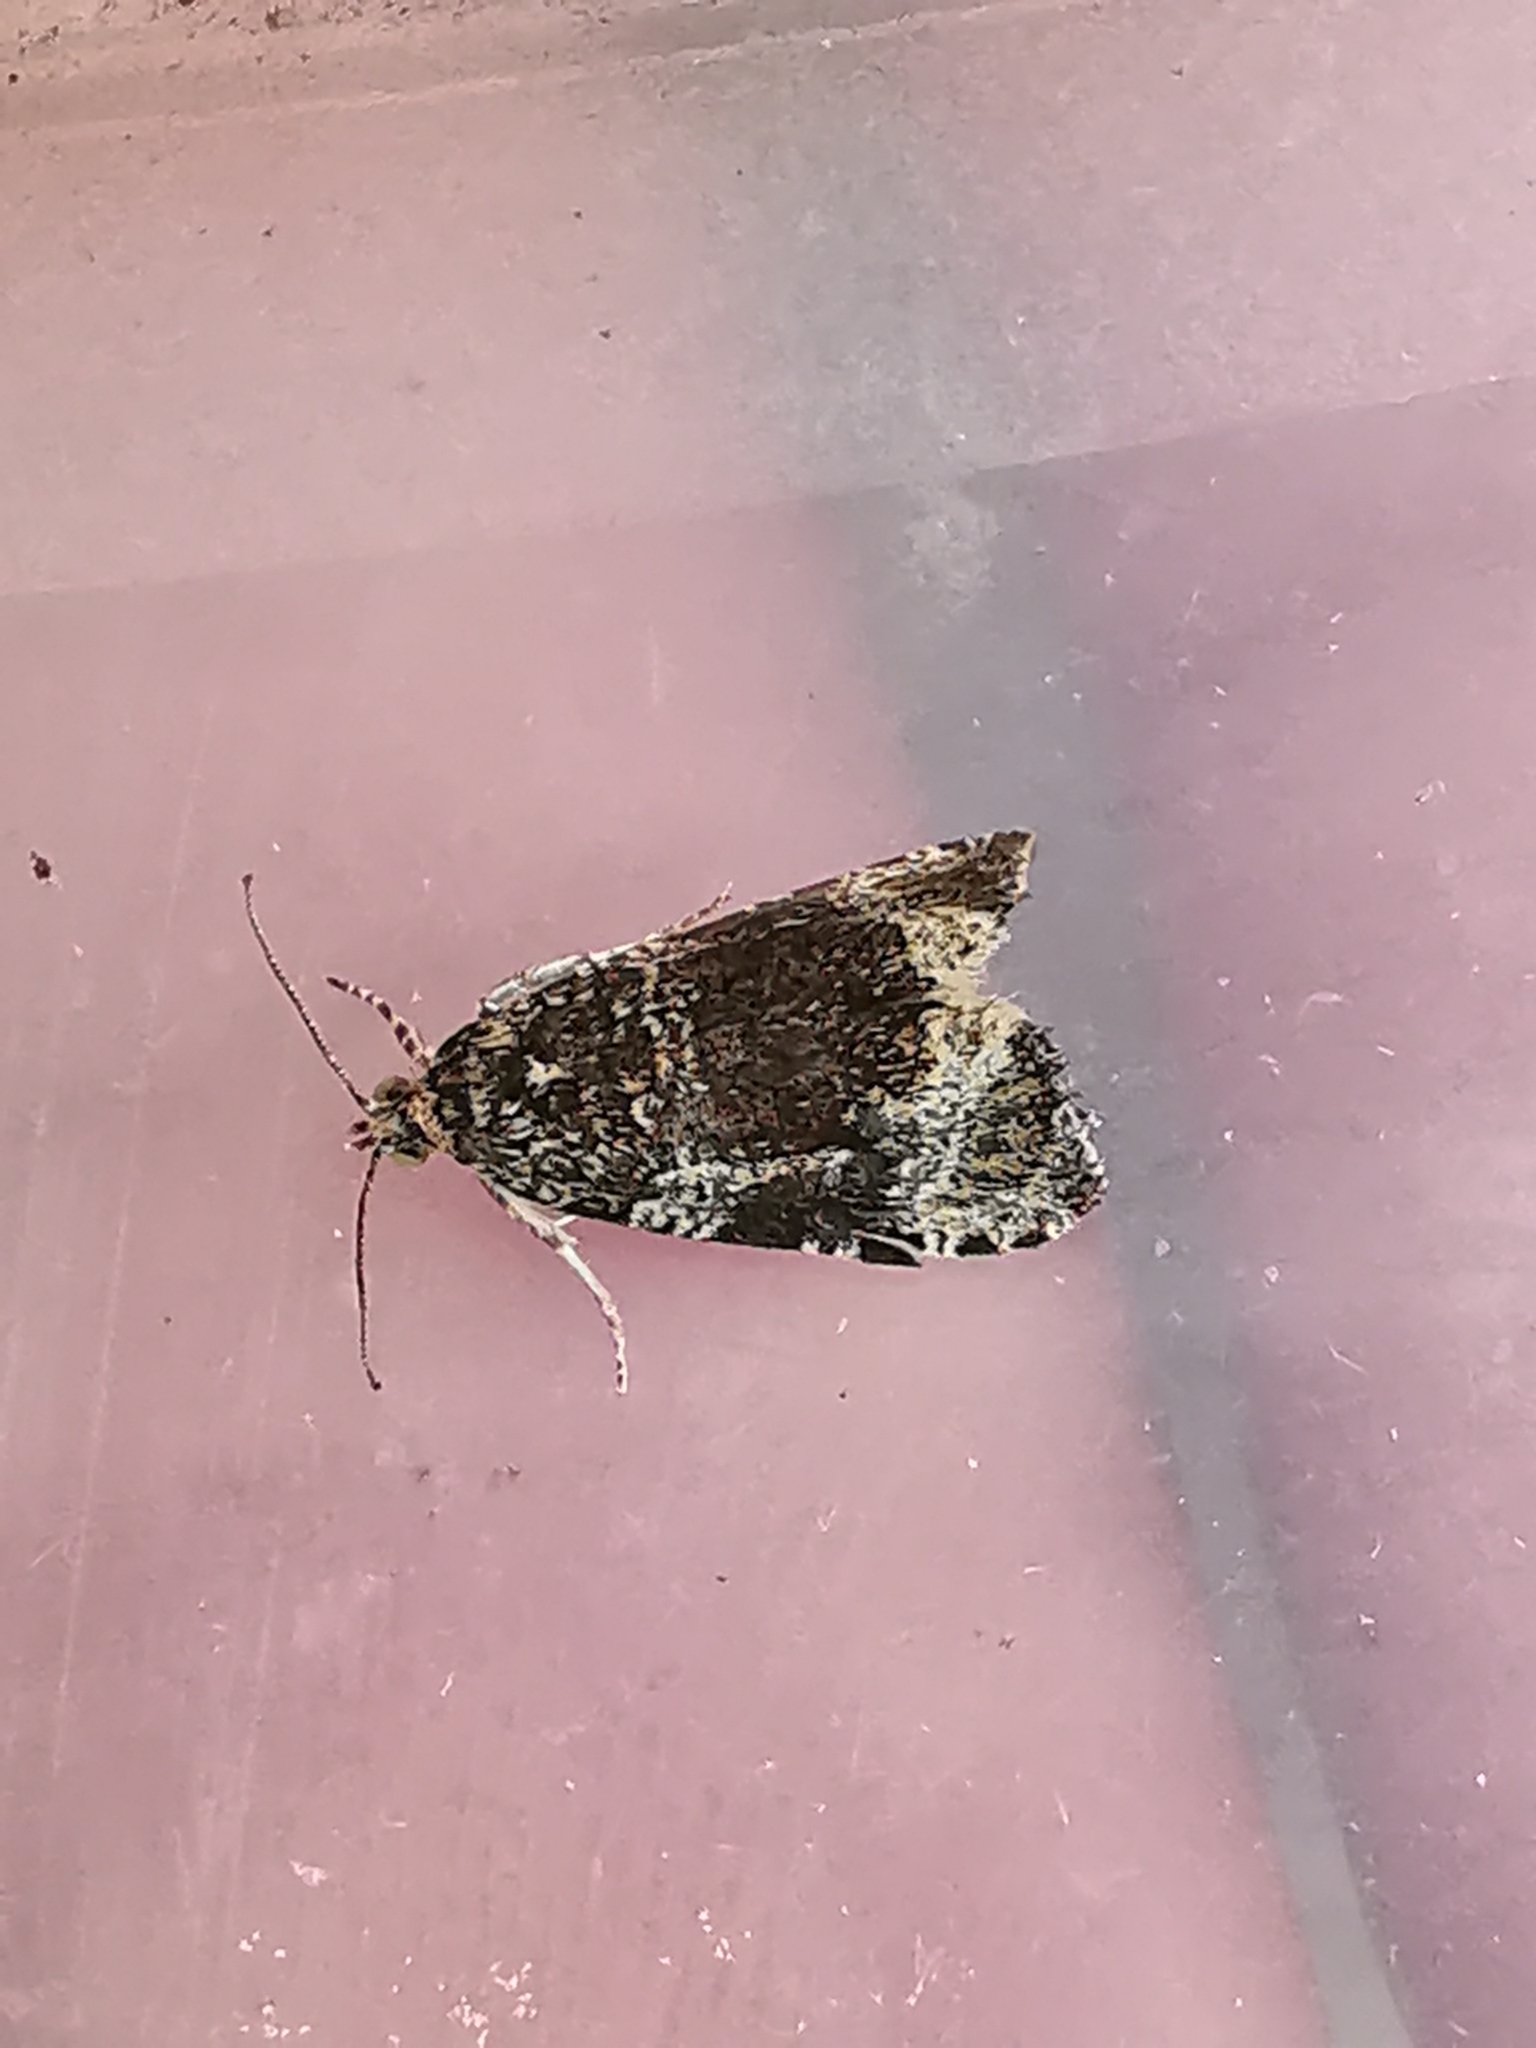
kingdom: Animalia
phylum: Arthropoda
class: Insecta
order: Lepidoptera
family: Tortricidae
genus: Syricoris
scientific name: Syricoris lacunana
